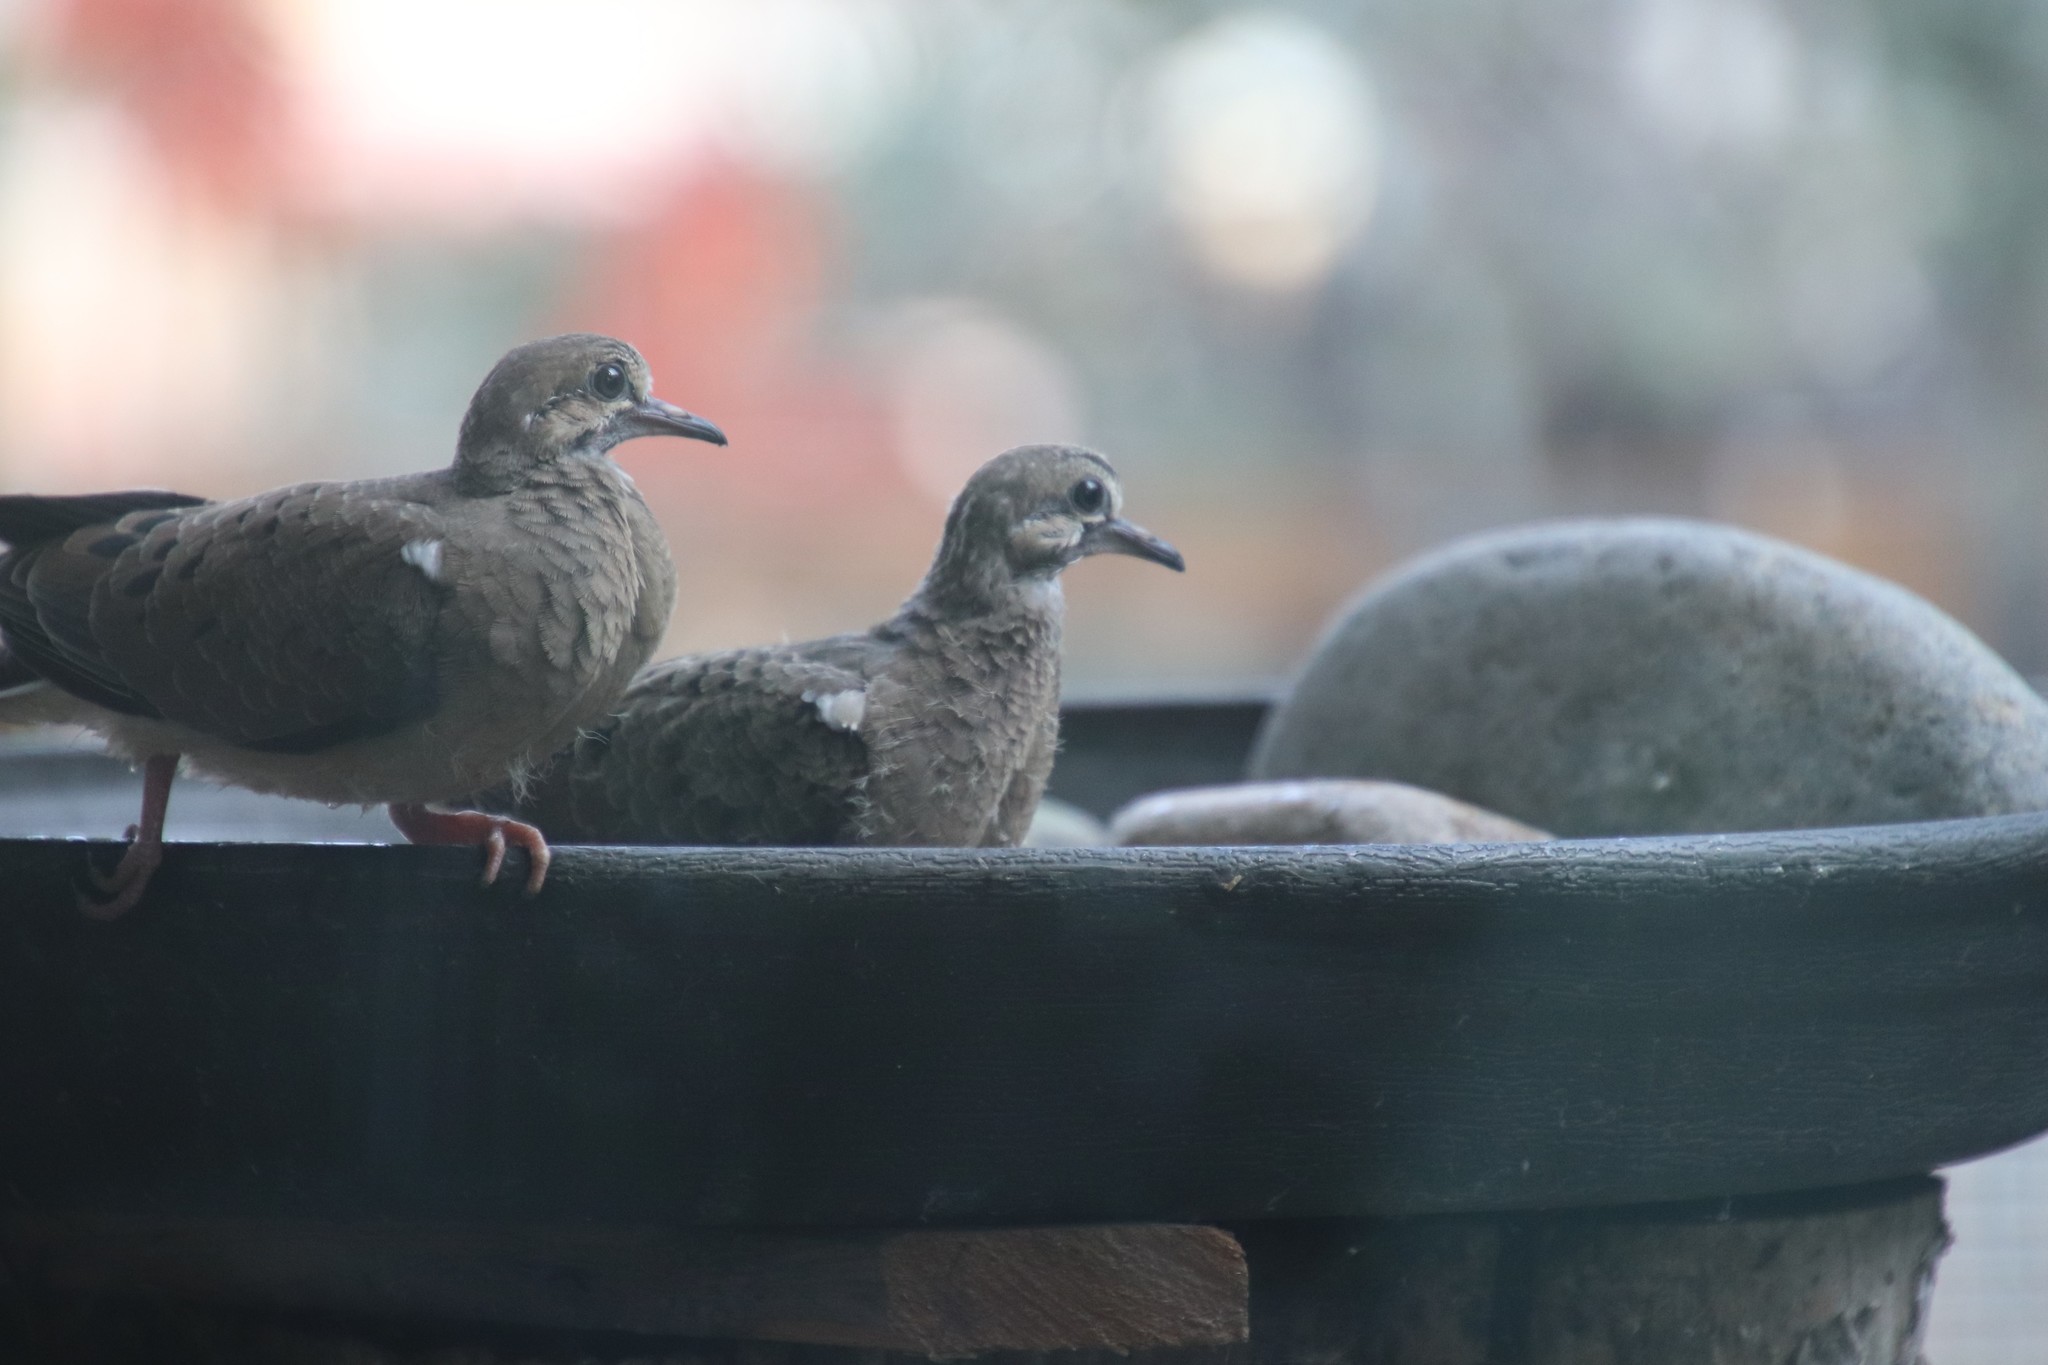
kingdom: Animalia
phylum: Chordata
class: Aves
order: Columbiformes
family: Columbidae
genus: Zenaida
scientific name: Zenaida macroura
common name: Mourning dove
